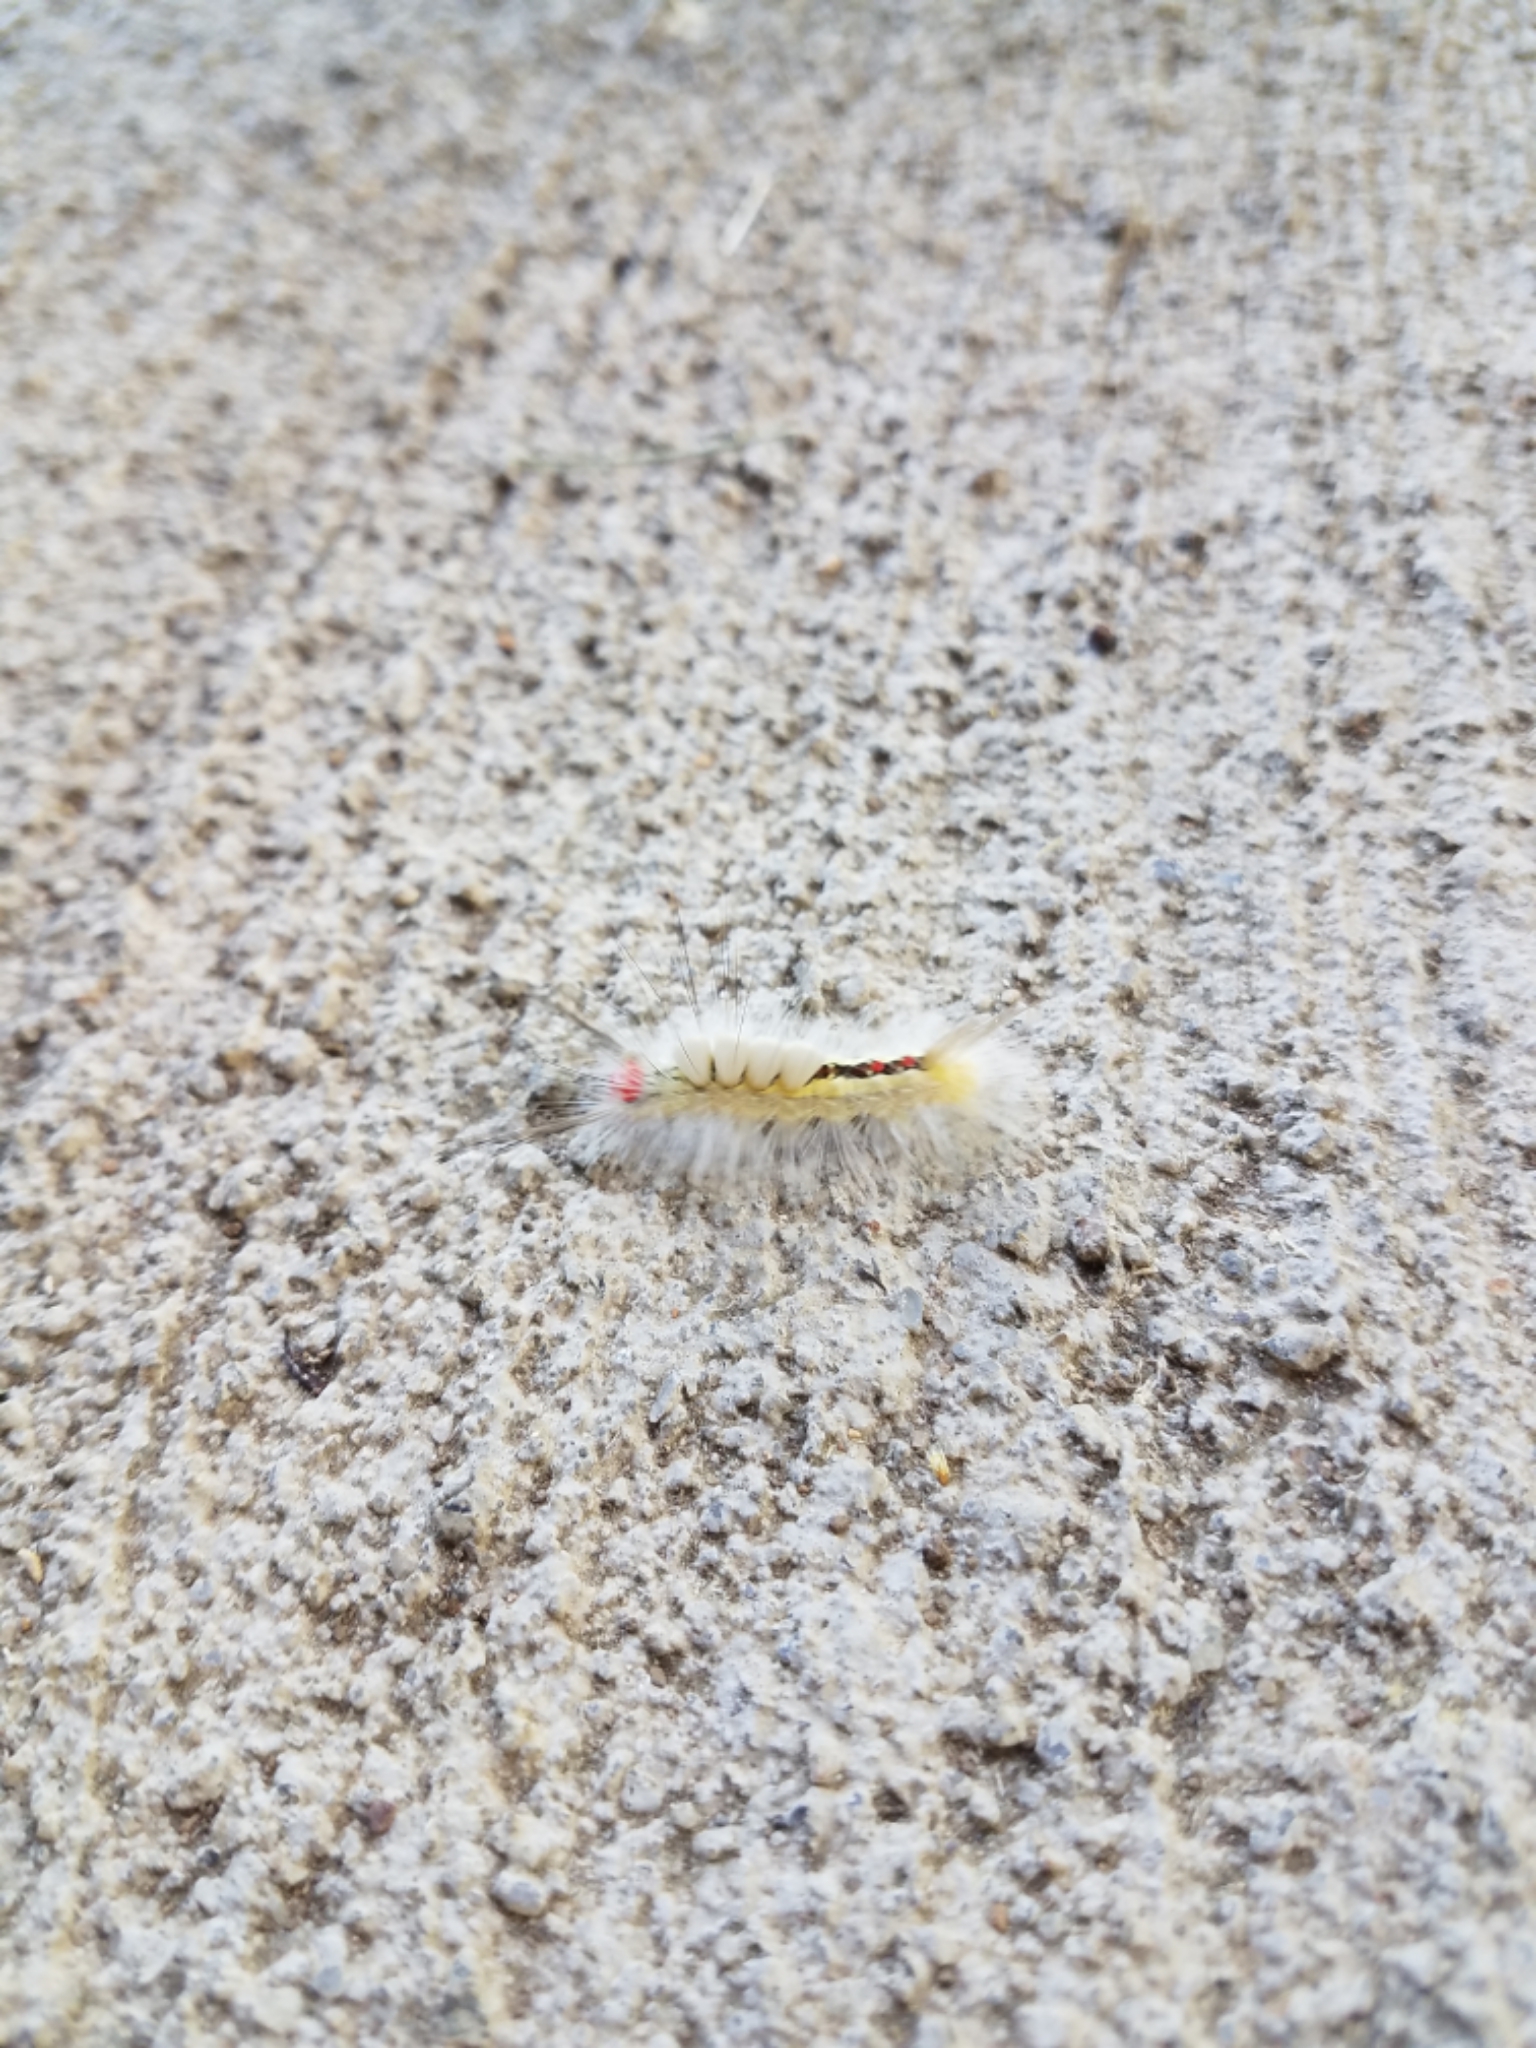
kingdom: Animalia
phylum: Arthropoda
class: Insecta
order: Lepidoptera
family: Erebidae
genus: Orgyia
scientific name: Orgyia leucostigma
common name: White-marked tussock moth
